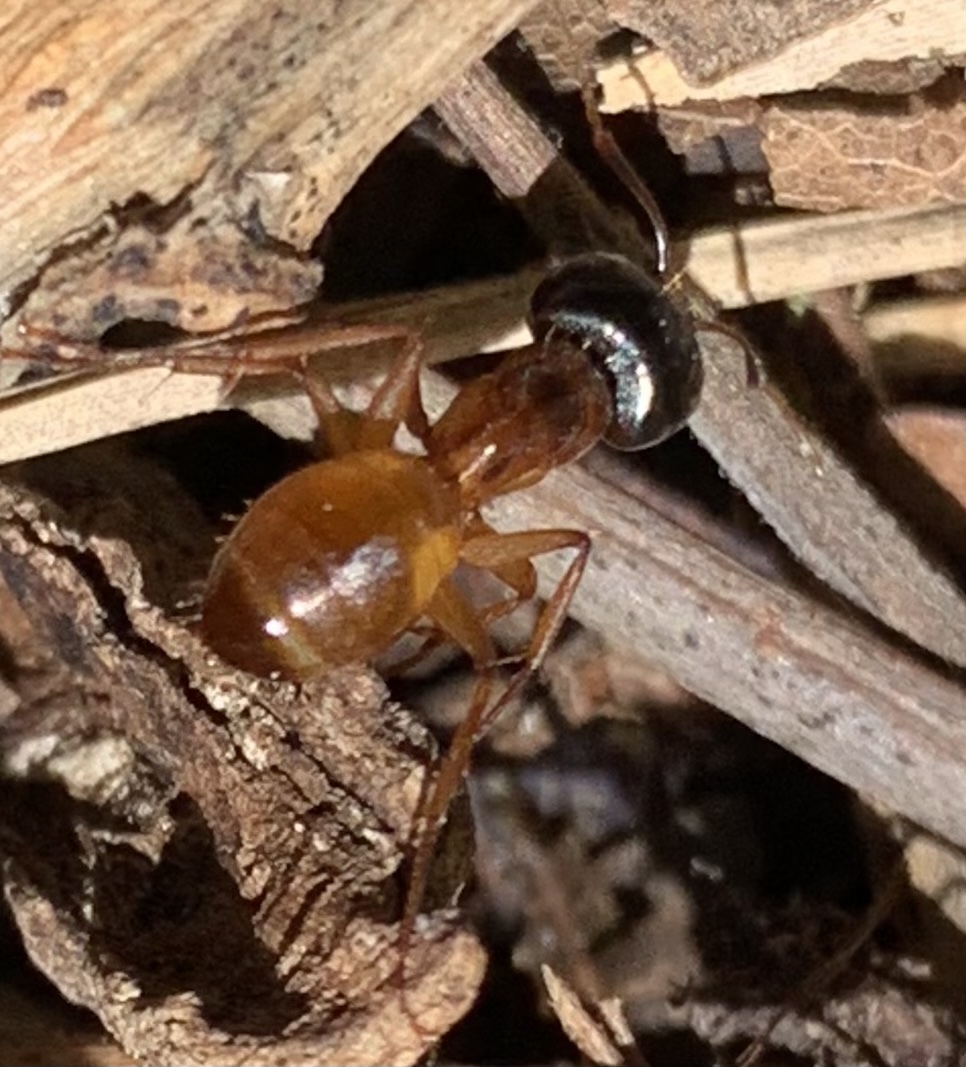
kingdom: Animalia
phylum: Arthropoda
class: Insecta
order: Hymenoptera
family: Formicidae
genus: Camponotus
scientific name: Camponotus sansabeanus
